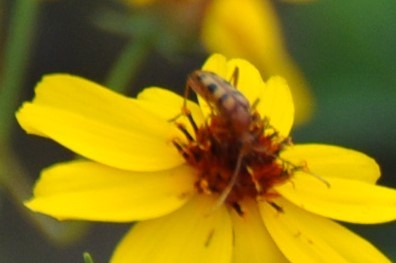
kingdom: Animalia
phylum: Arthropoda
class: Insecta
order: Coleoptera
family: Cerambycidae
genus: Strangalia
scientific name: Strangalia sexnotata
